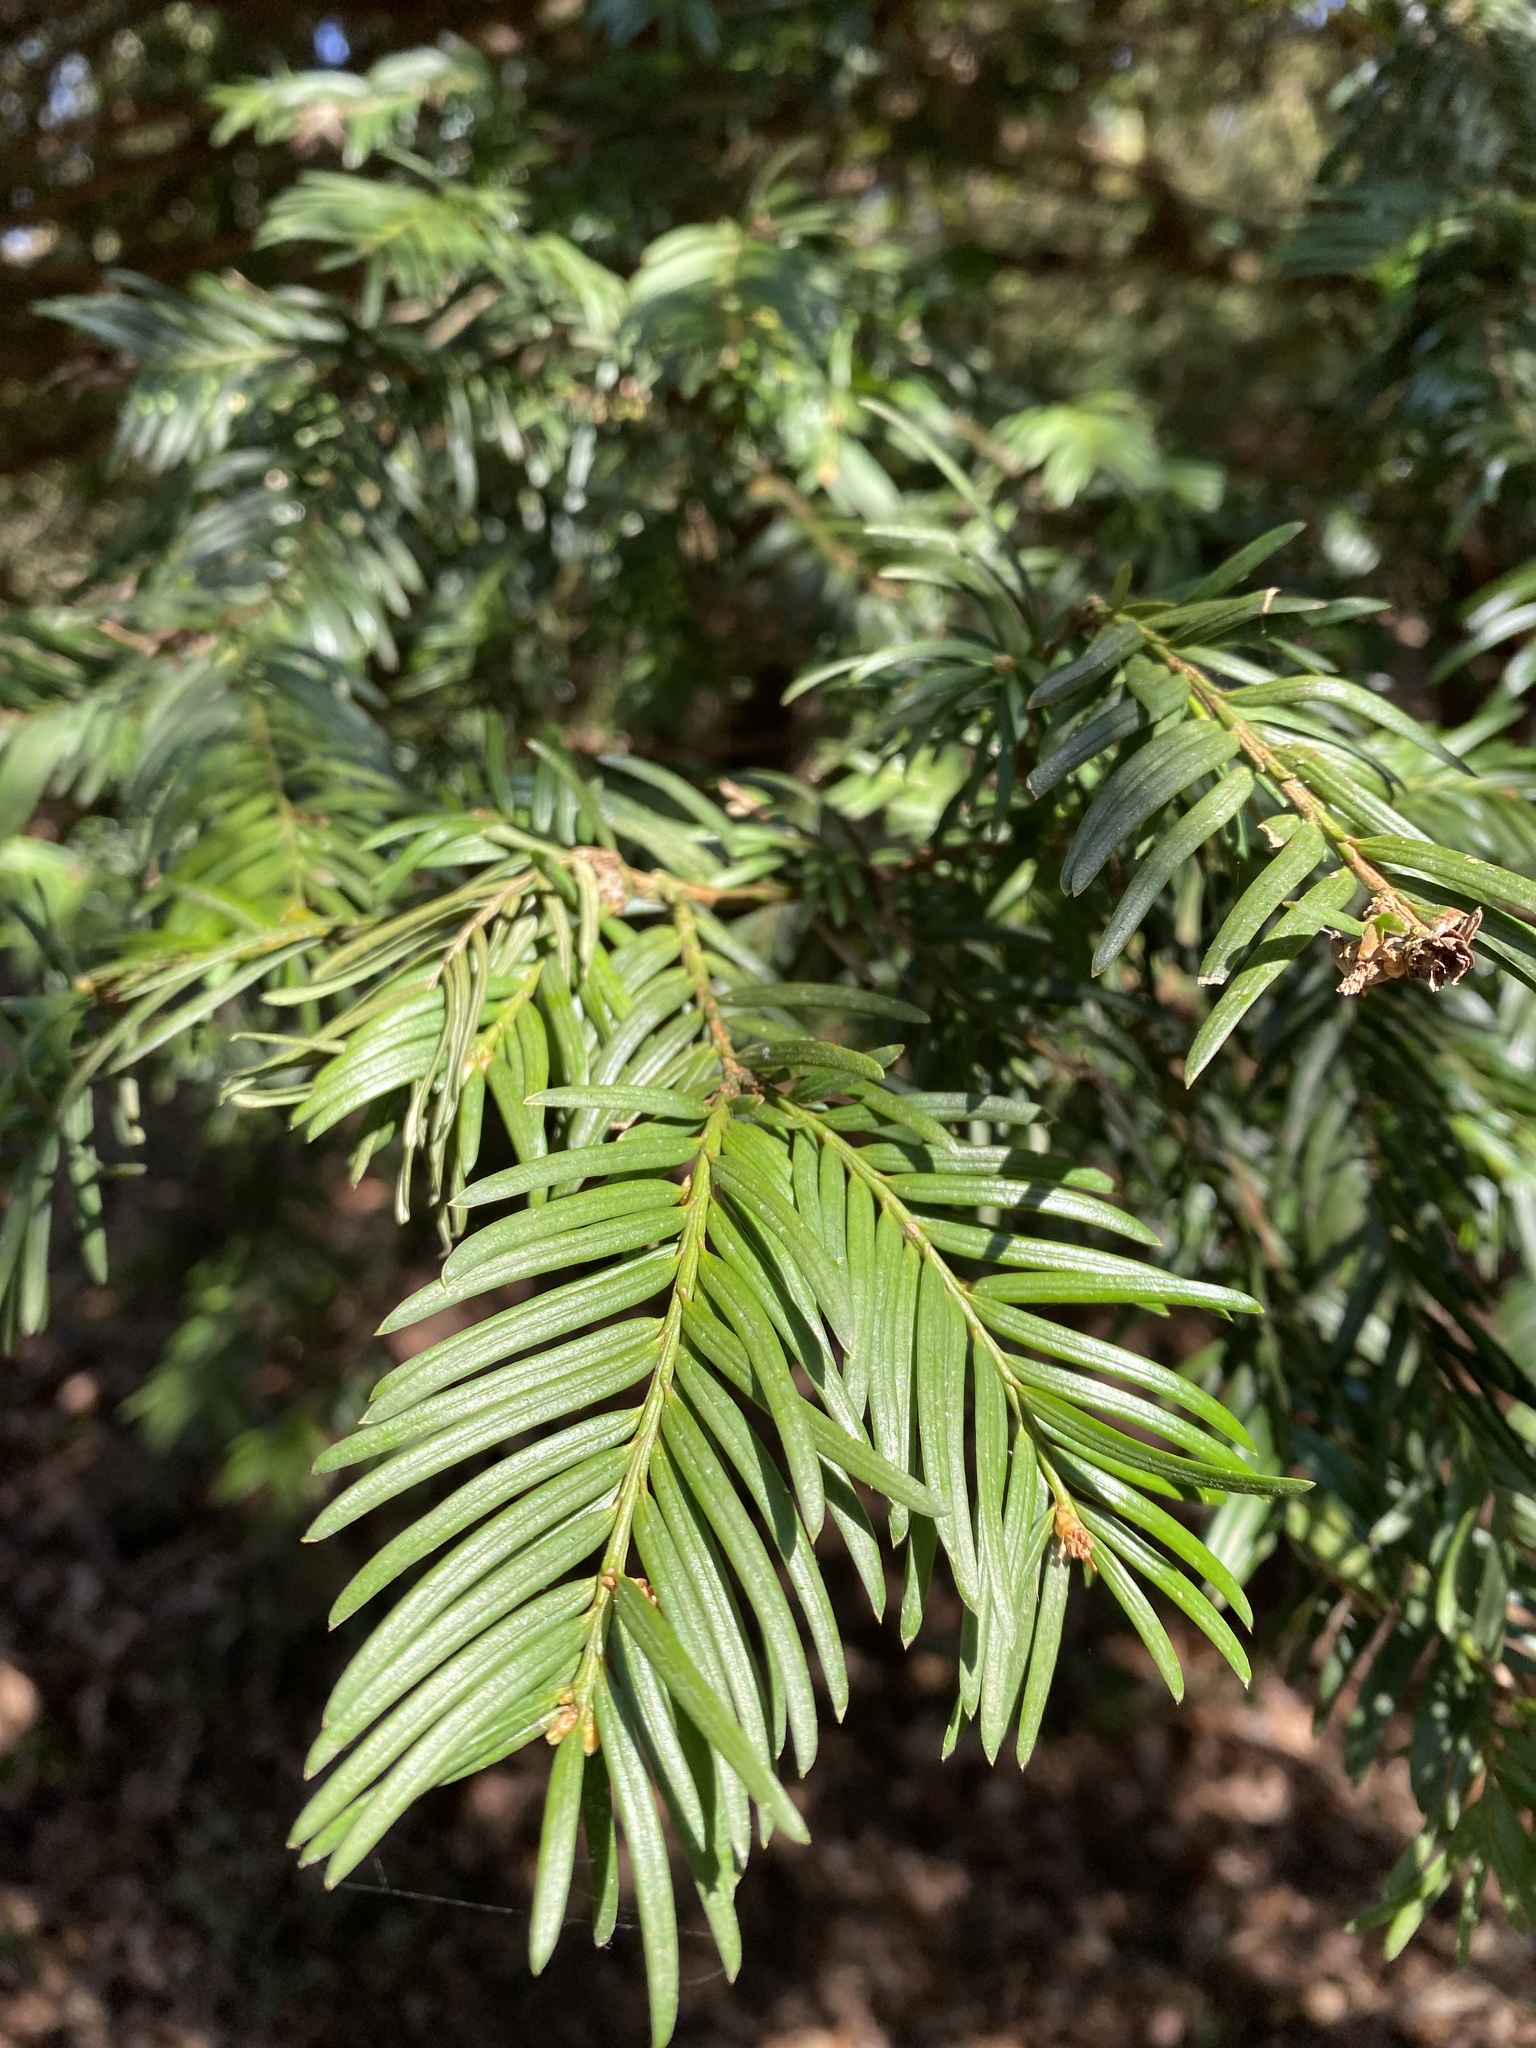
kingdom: Plantae
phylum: Tracheophyta
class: Pinopsida
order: Pinales
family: Taxaceae
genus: Taxus
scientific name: Taxus baccata
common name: Yew
